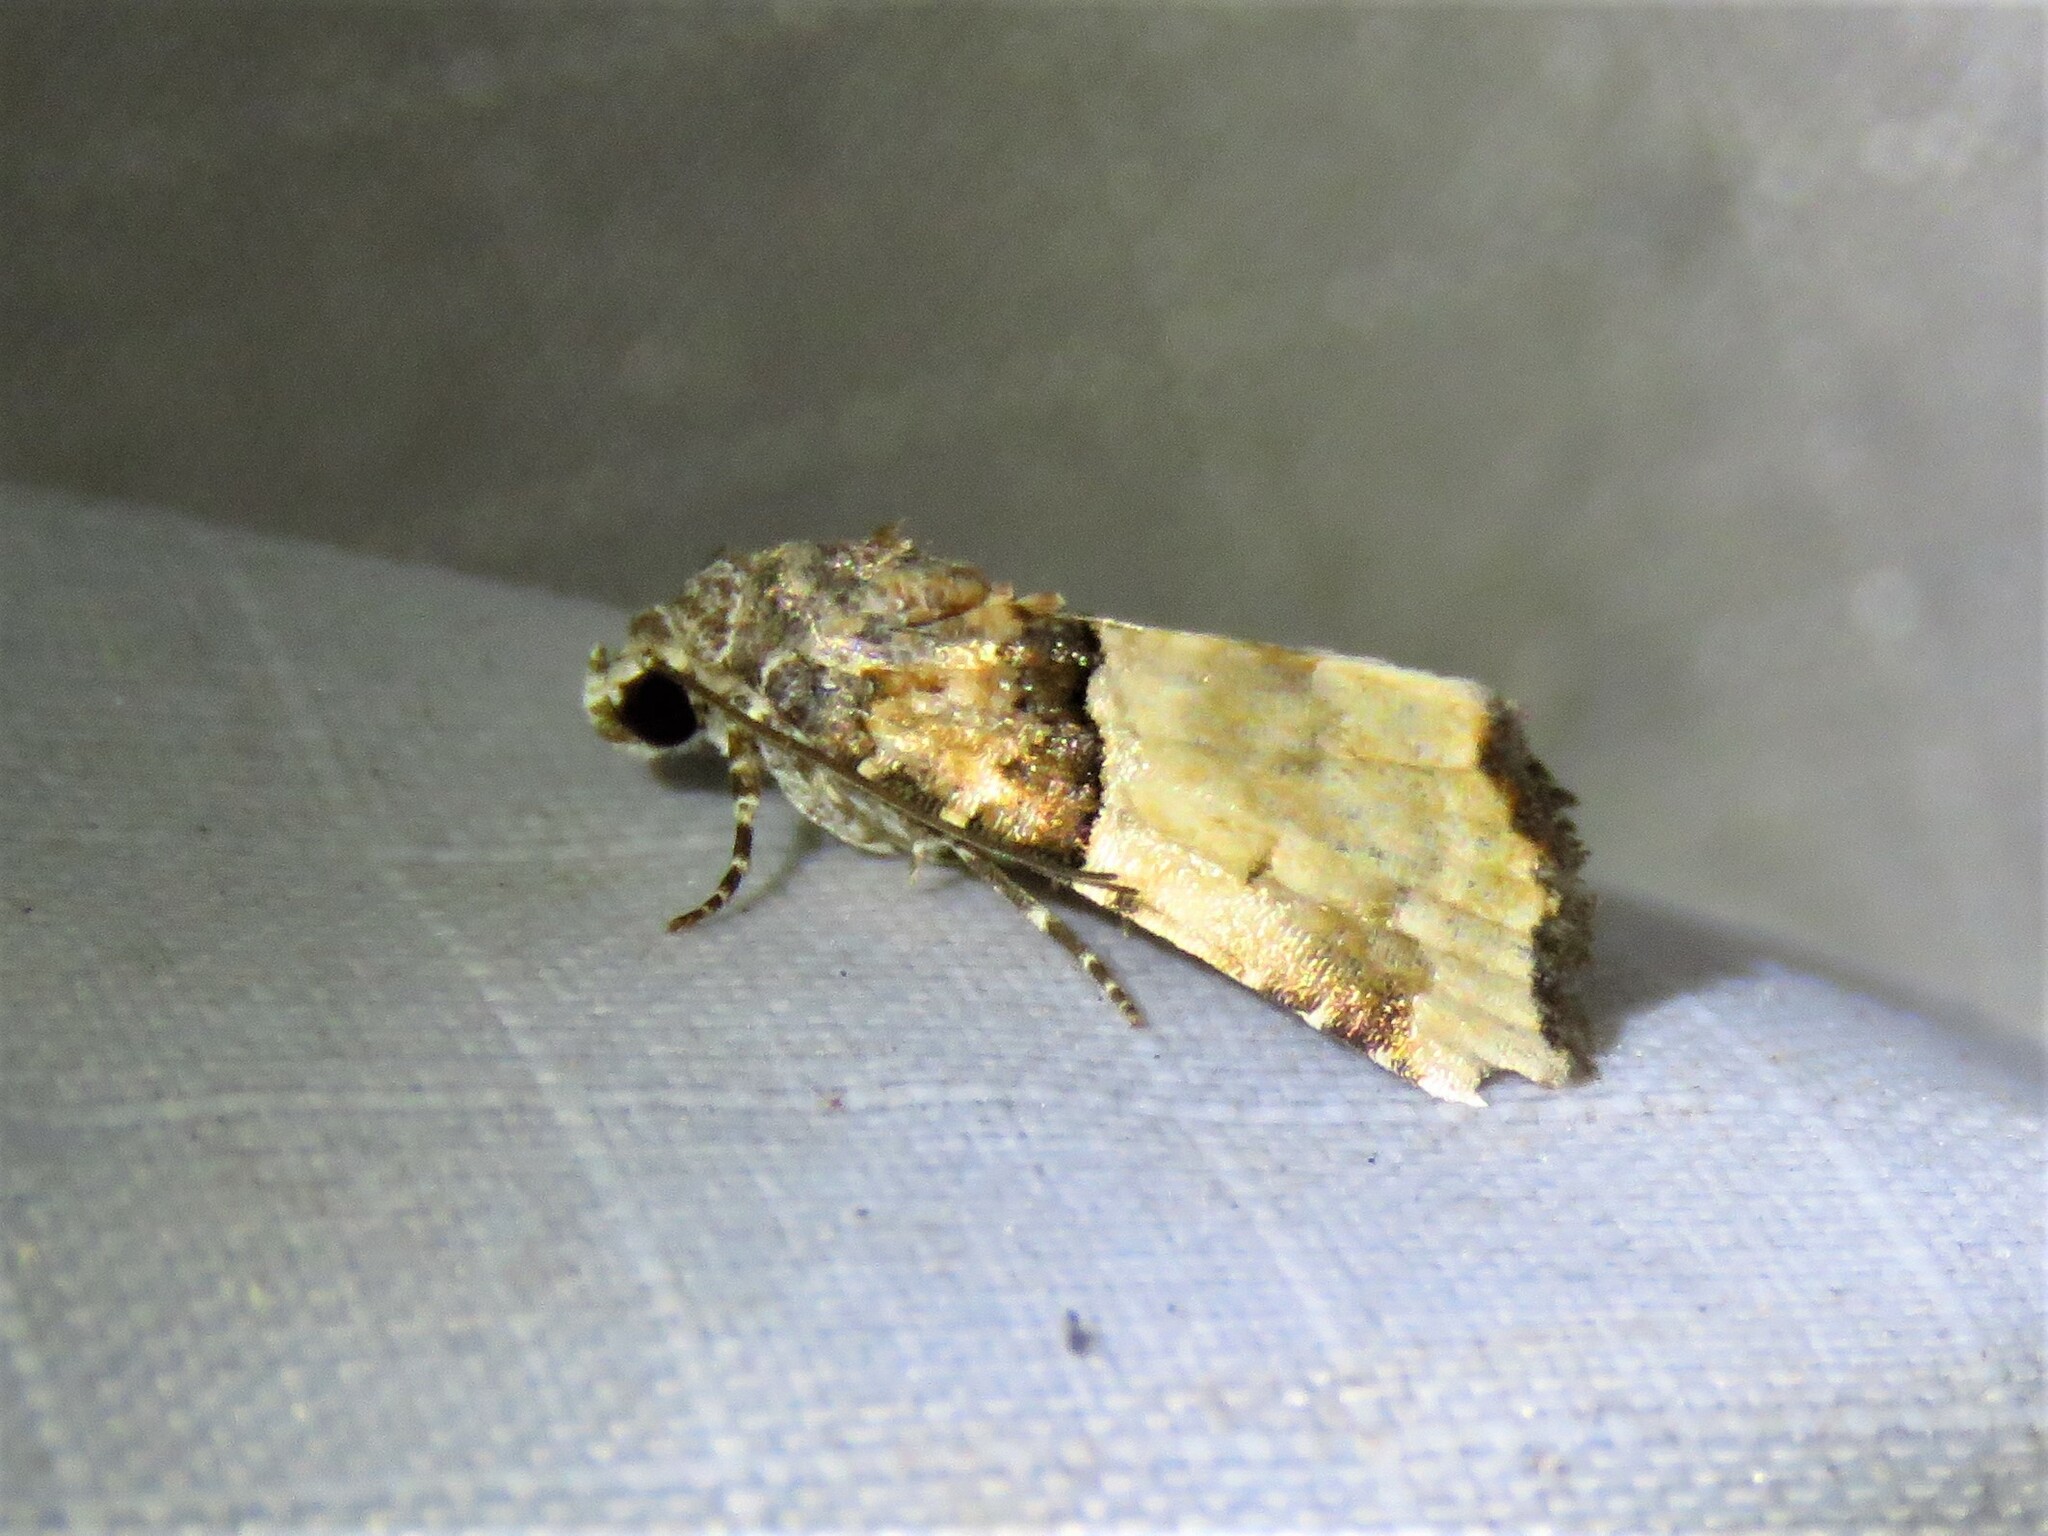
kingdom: Animalia
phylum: Arthropoda
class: Insecta
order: Lepidoptera
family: Noctuidae
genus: Cobubatha
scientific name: Cobubatha dividua
